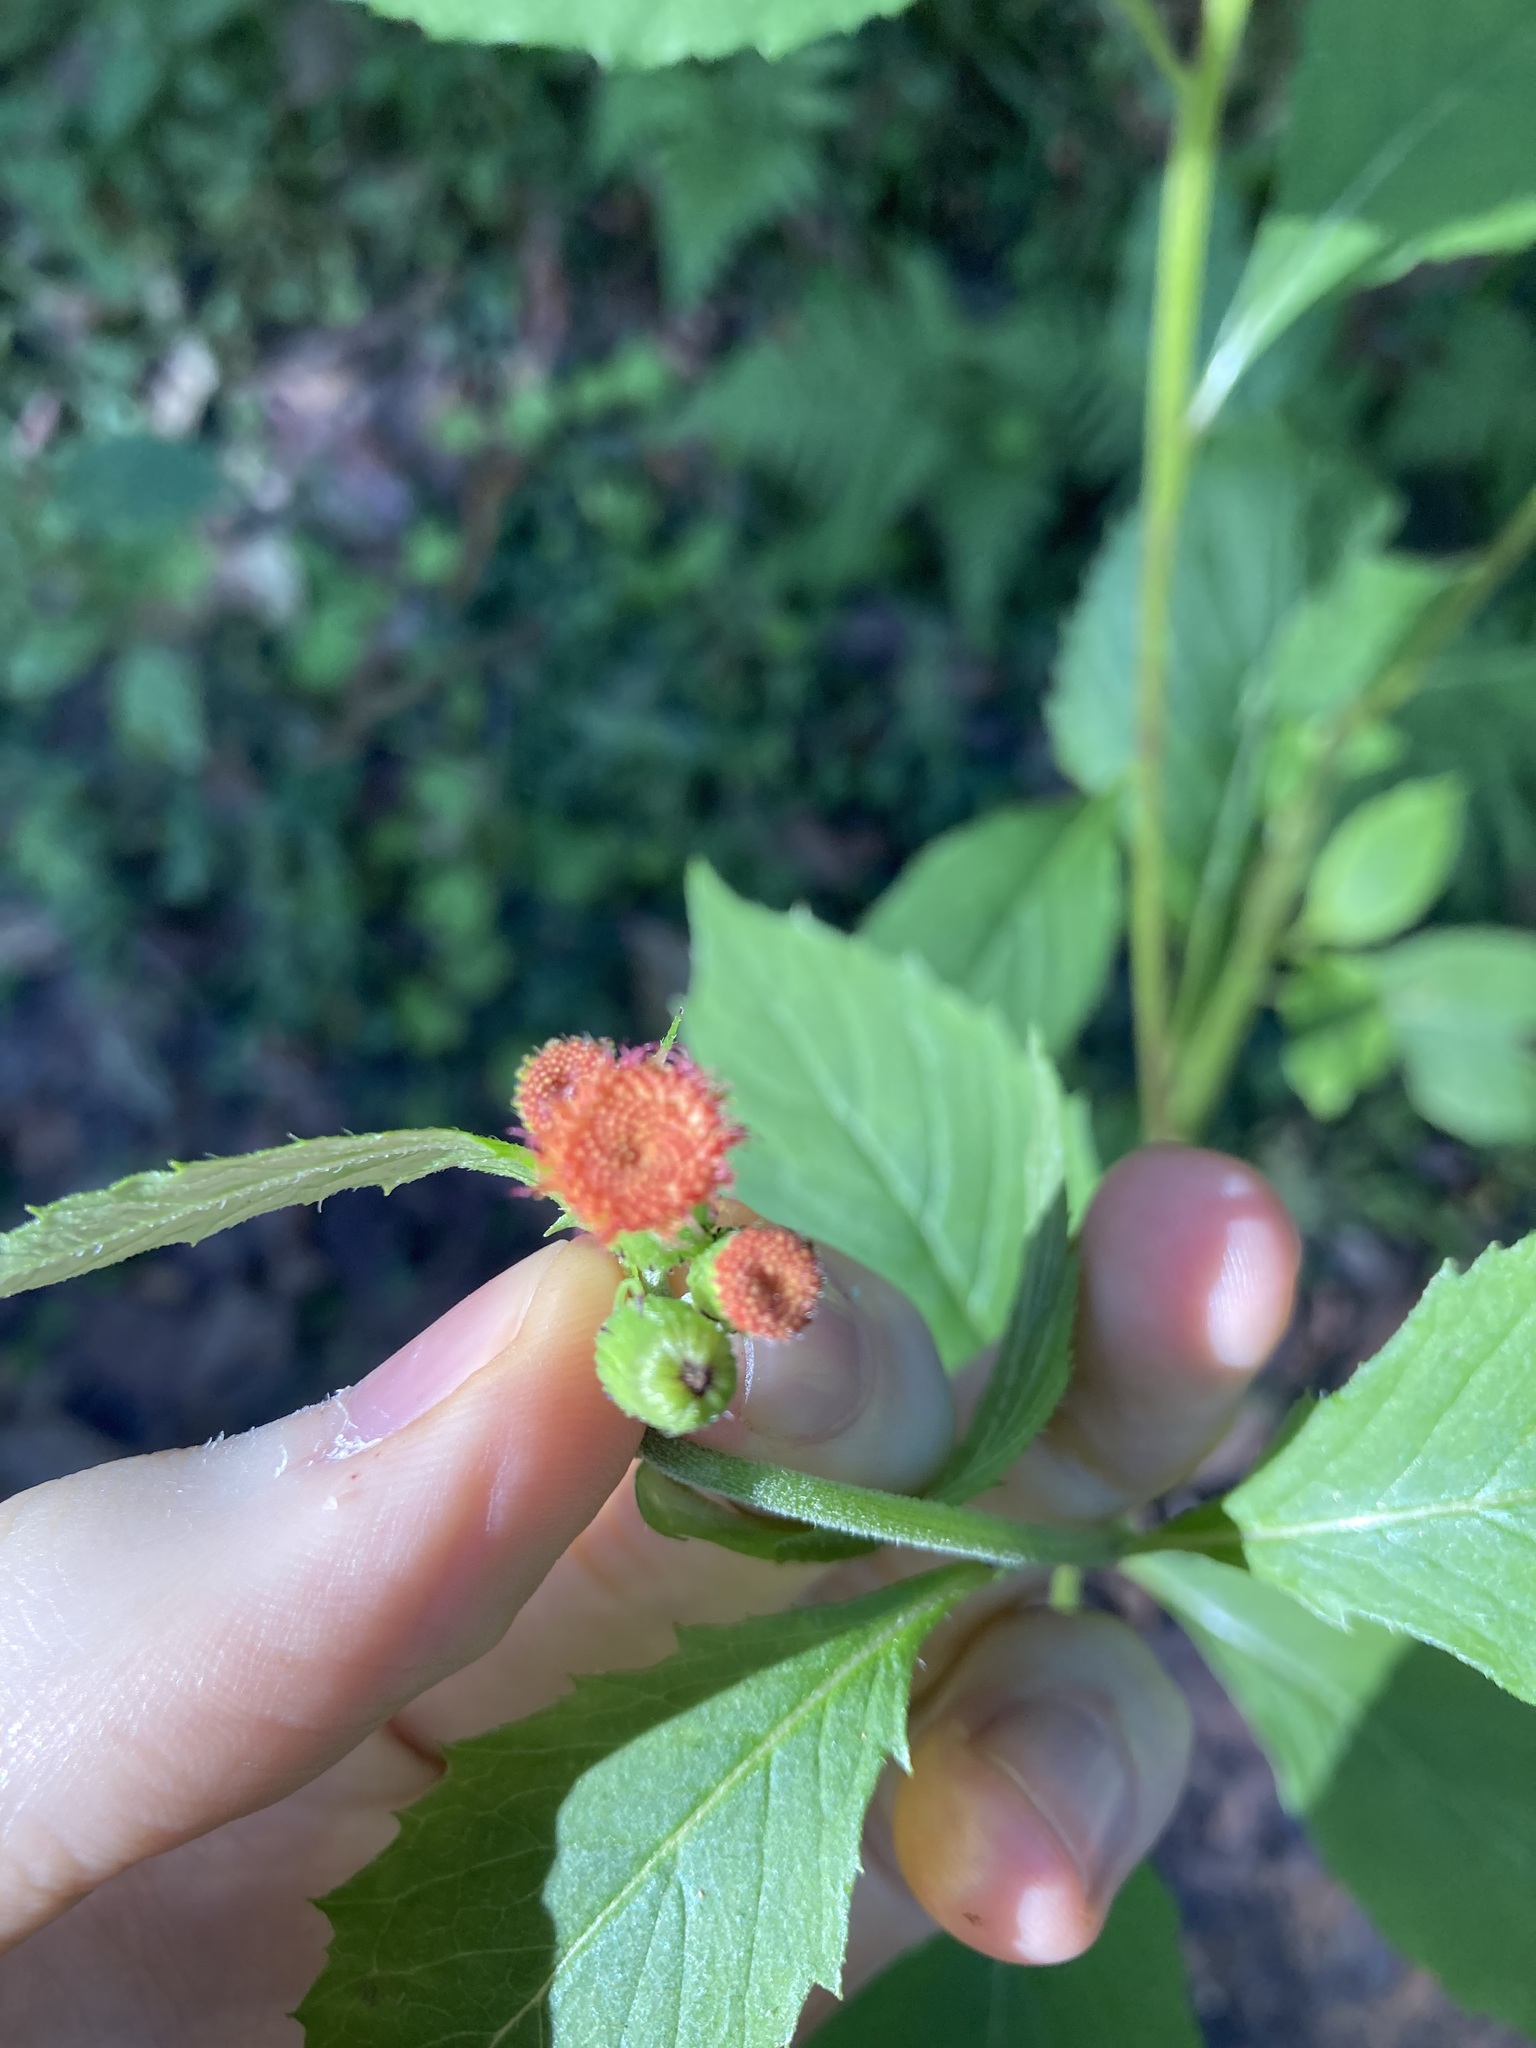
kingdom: Plantae
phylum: Tracheophyta
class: Magnoliopsida
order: Asterales
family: Asteraceae
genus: Crassocephalum
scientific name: Crassocephalum crepidioides
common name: Redflower ragleaf
